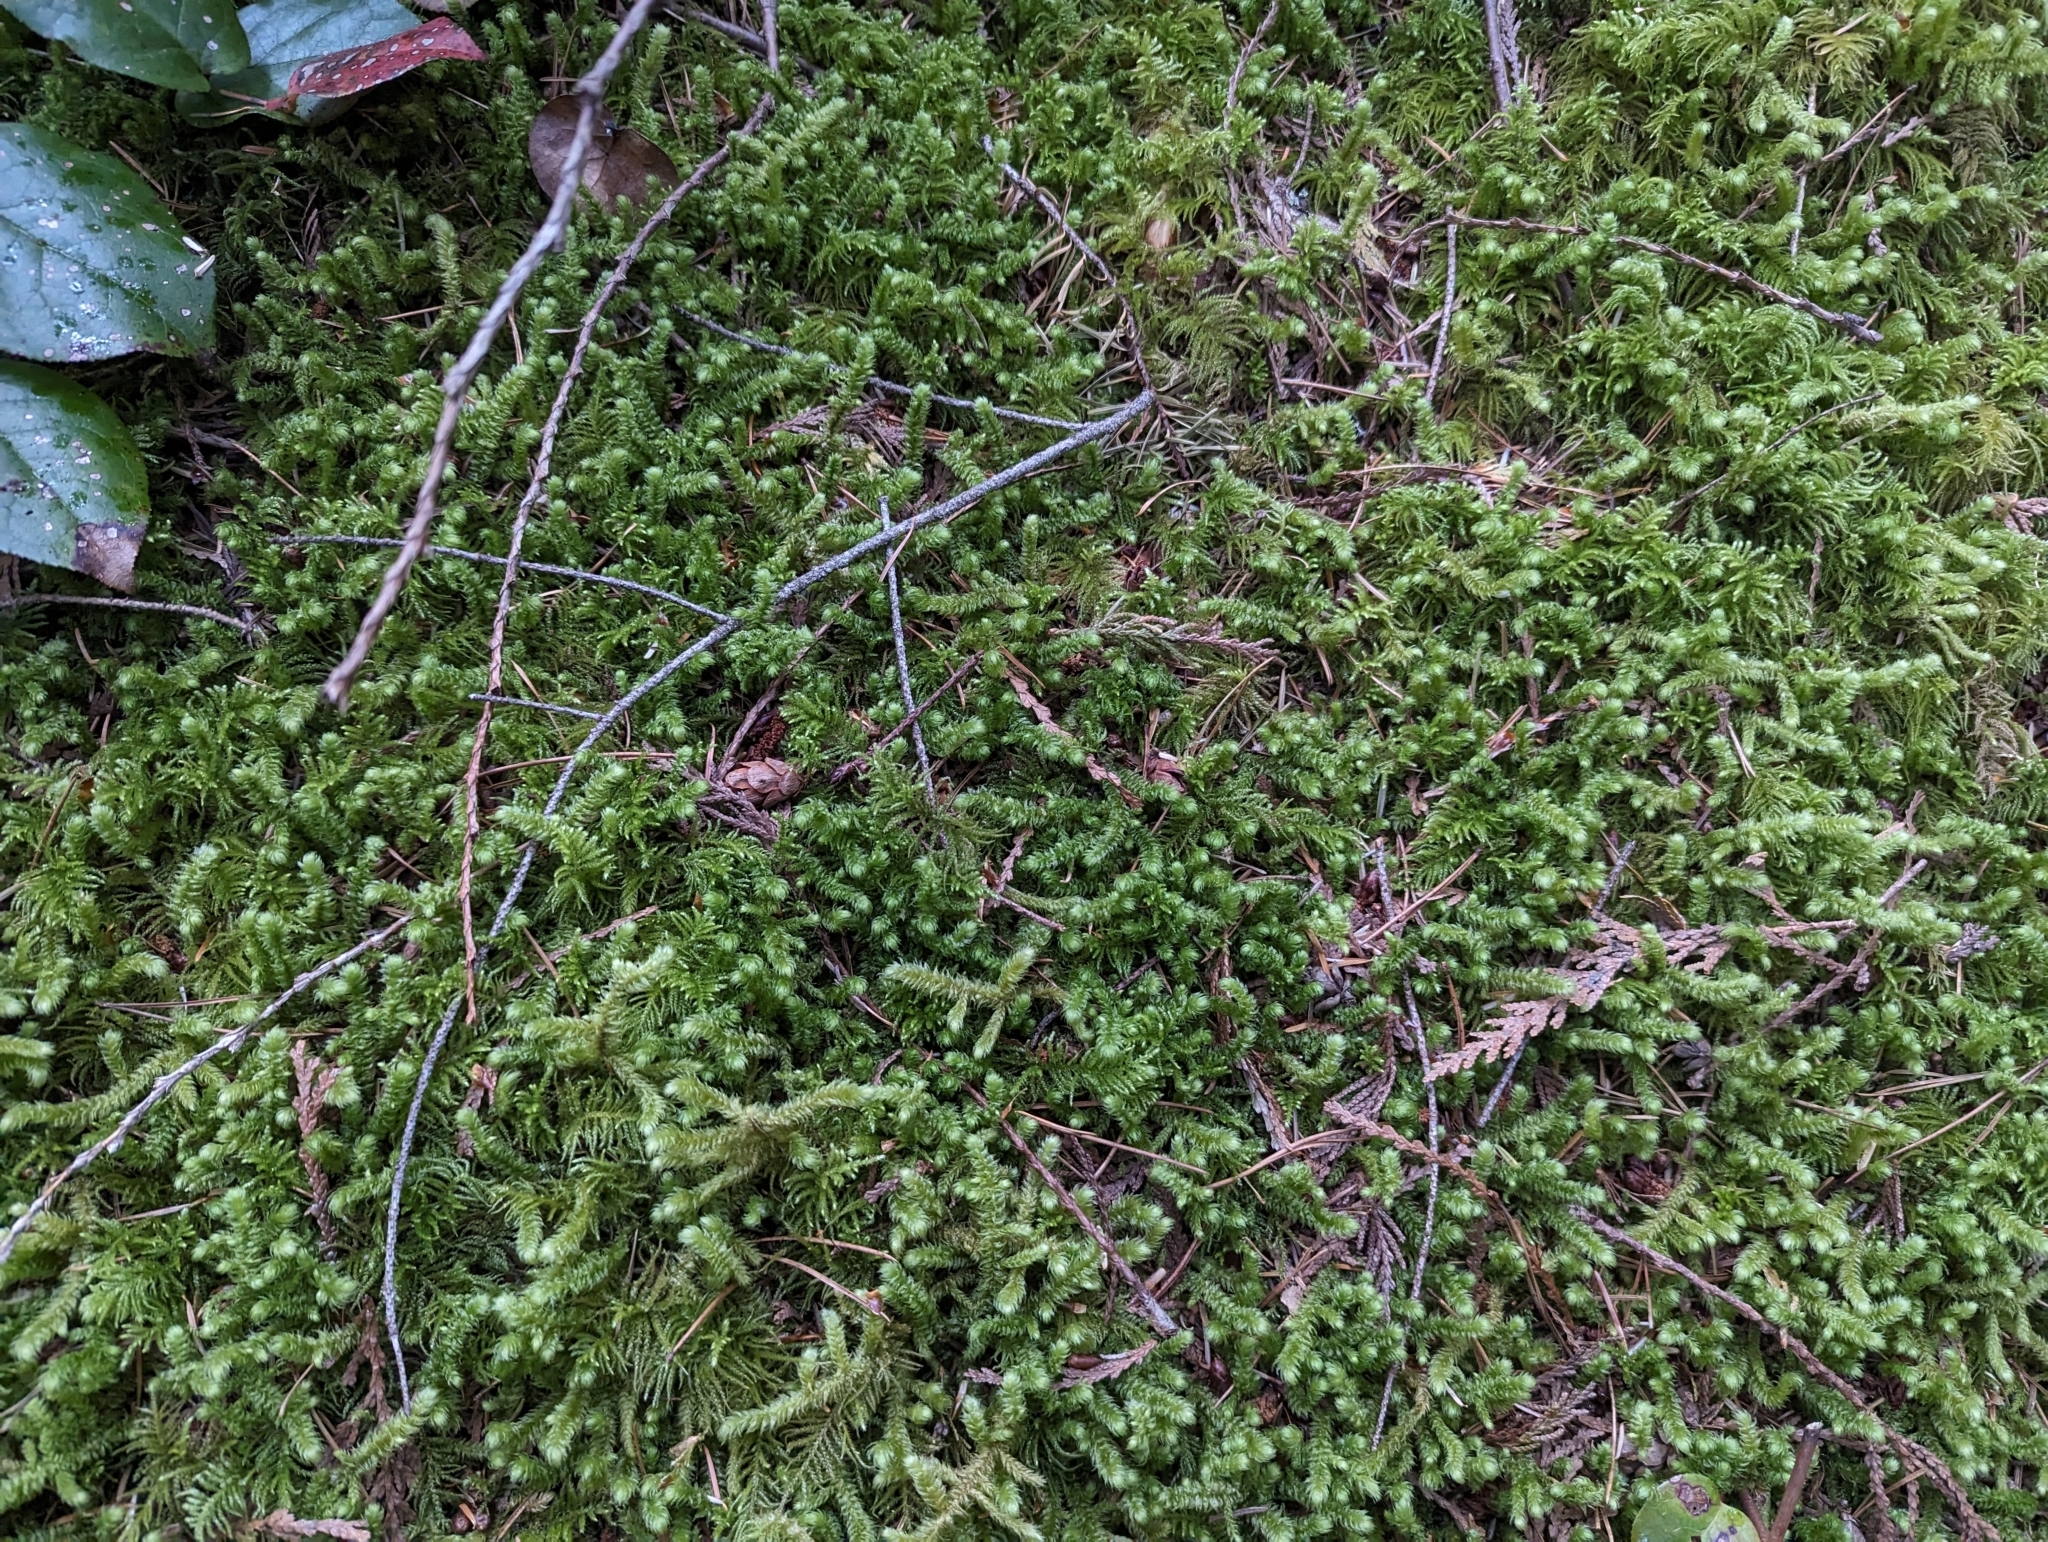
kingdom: Plantae
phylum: Bryophyta
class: Bryopsida
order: Hypnales
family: Hylocomiaceae
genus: Rhytidiopsis
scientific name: Rhytidiopsis robusta
